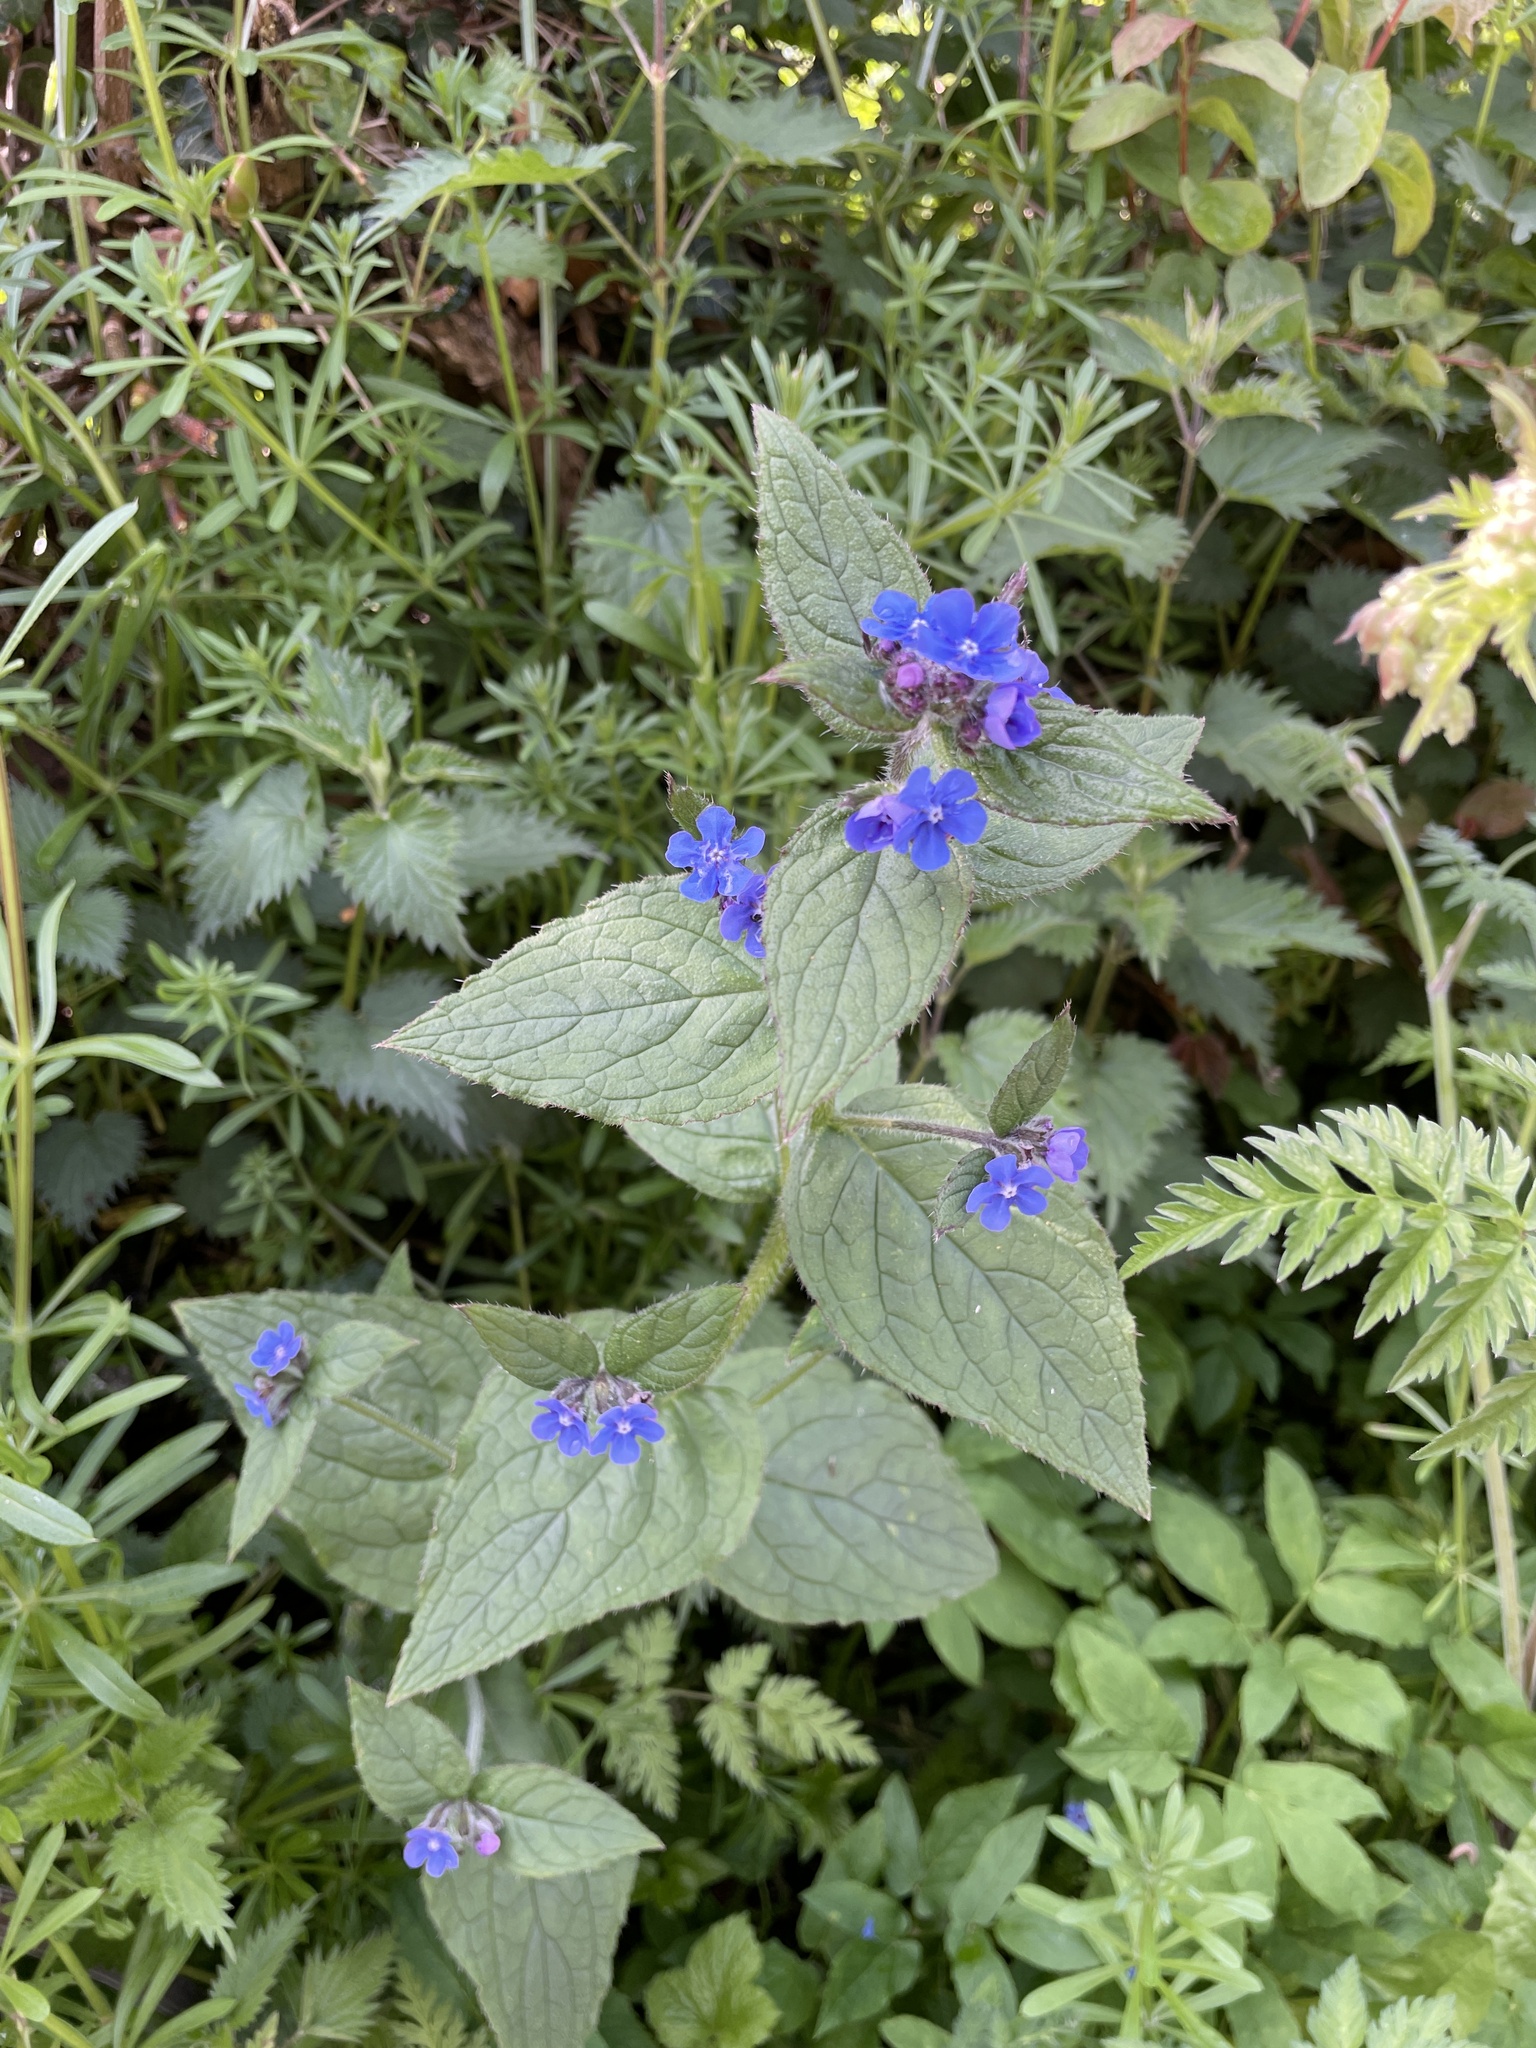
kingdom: Plantae
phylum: Tracheophyta
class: Magnoliopsida
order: Boraginales
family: Boraginaceae
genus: Pentaglottis
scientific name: Pentaglottis sempervirens
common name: Green alkanet
